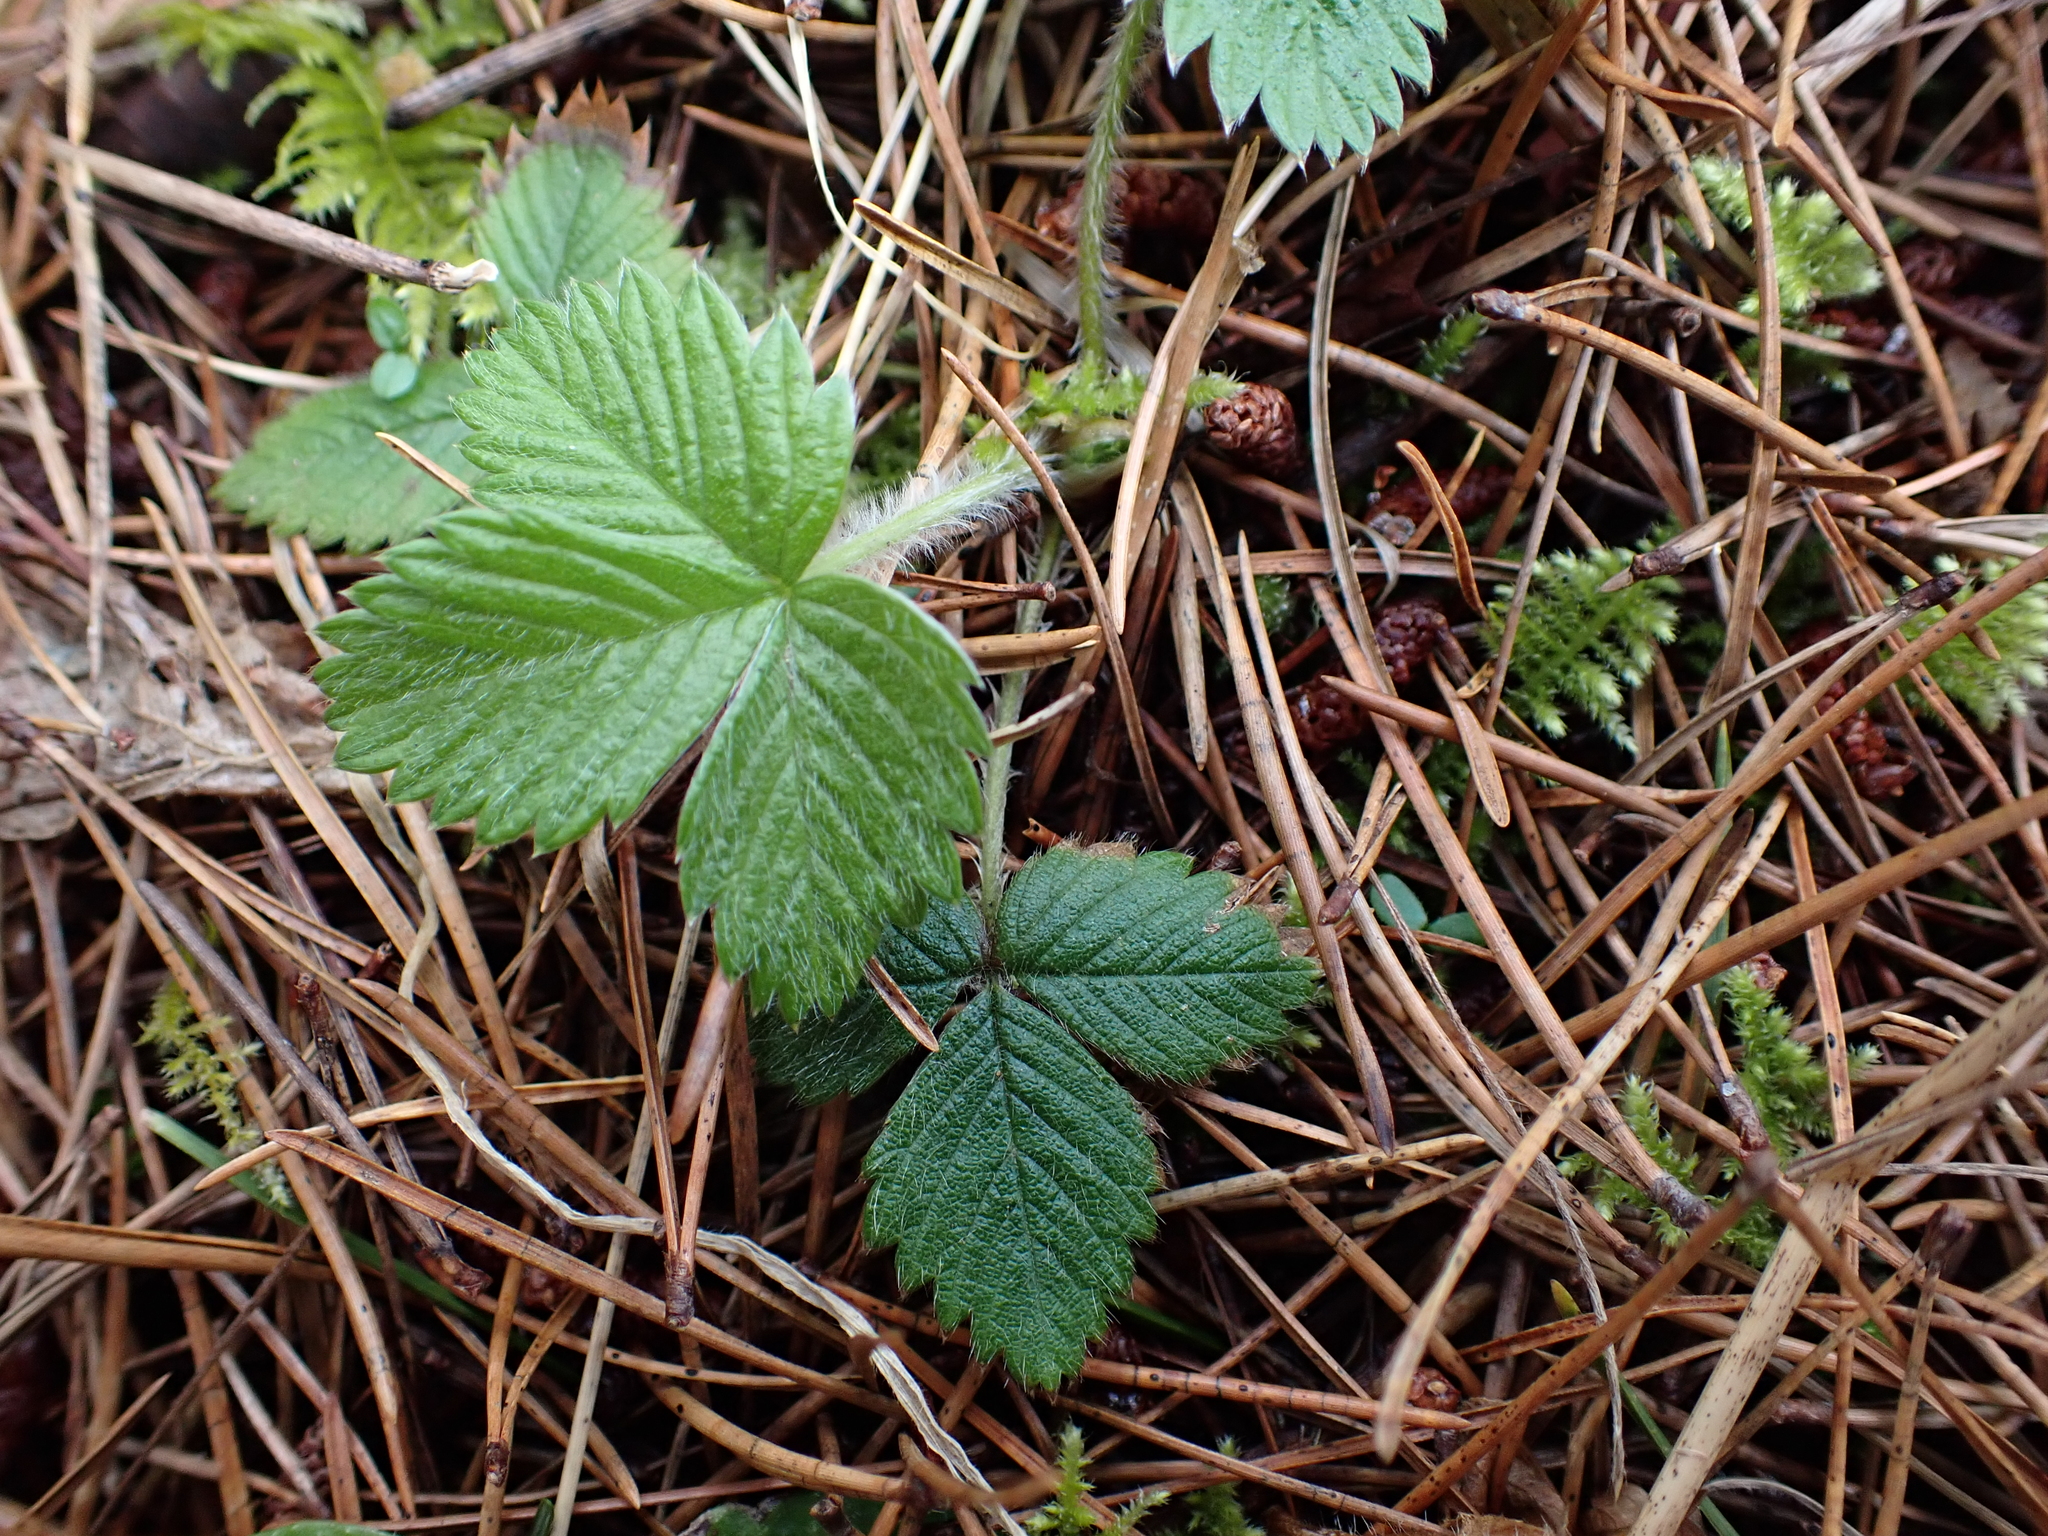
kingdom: Plantae
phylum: Tracheophyta
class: Magnoliopsida
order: Rosales
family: Rosaceae
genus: Fragaria
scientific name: Fragaria vesca
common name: Wild strawberry
